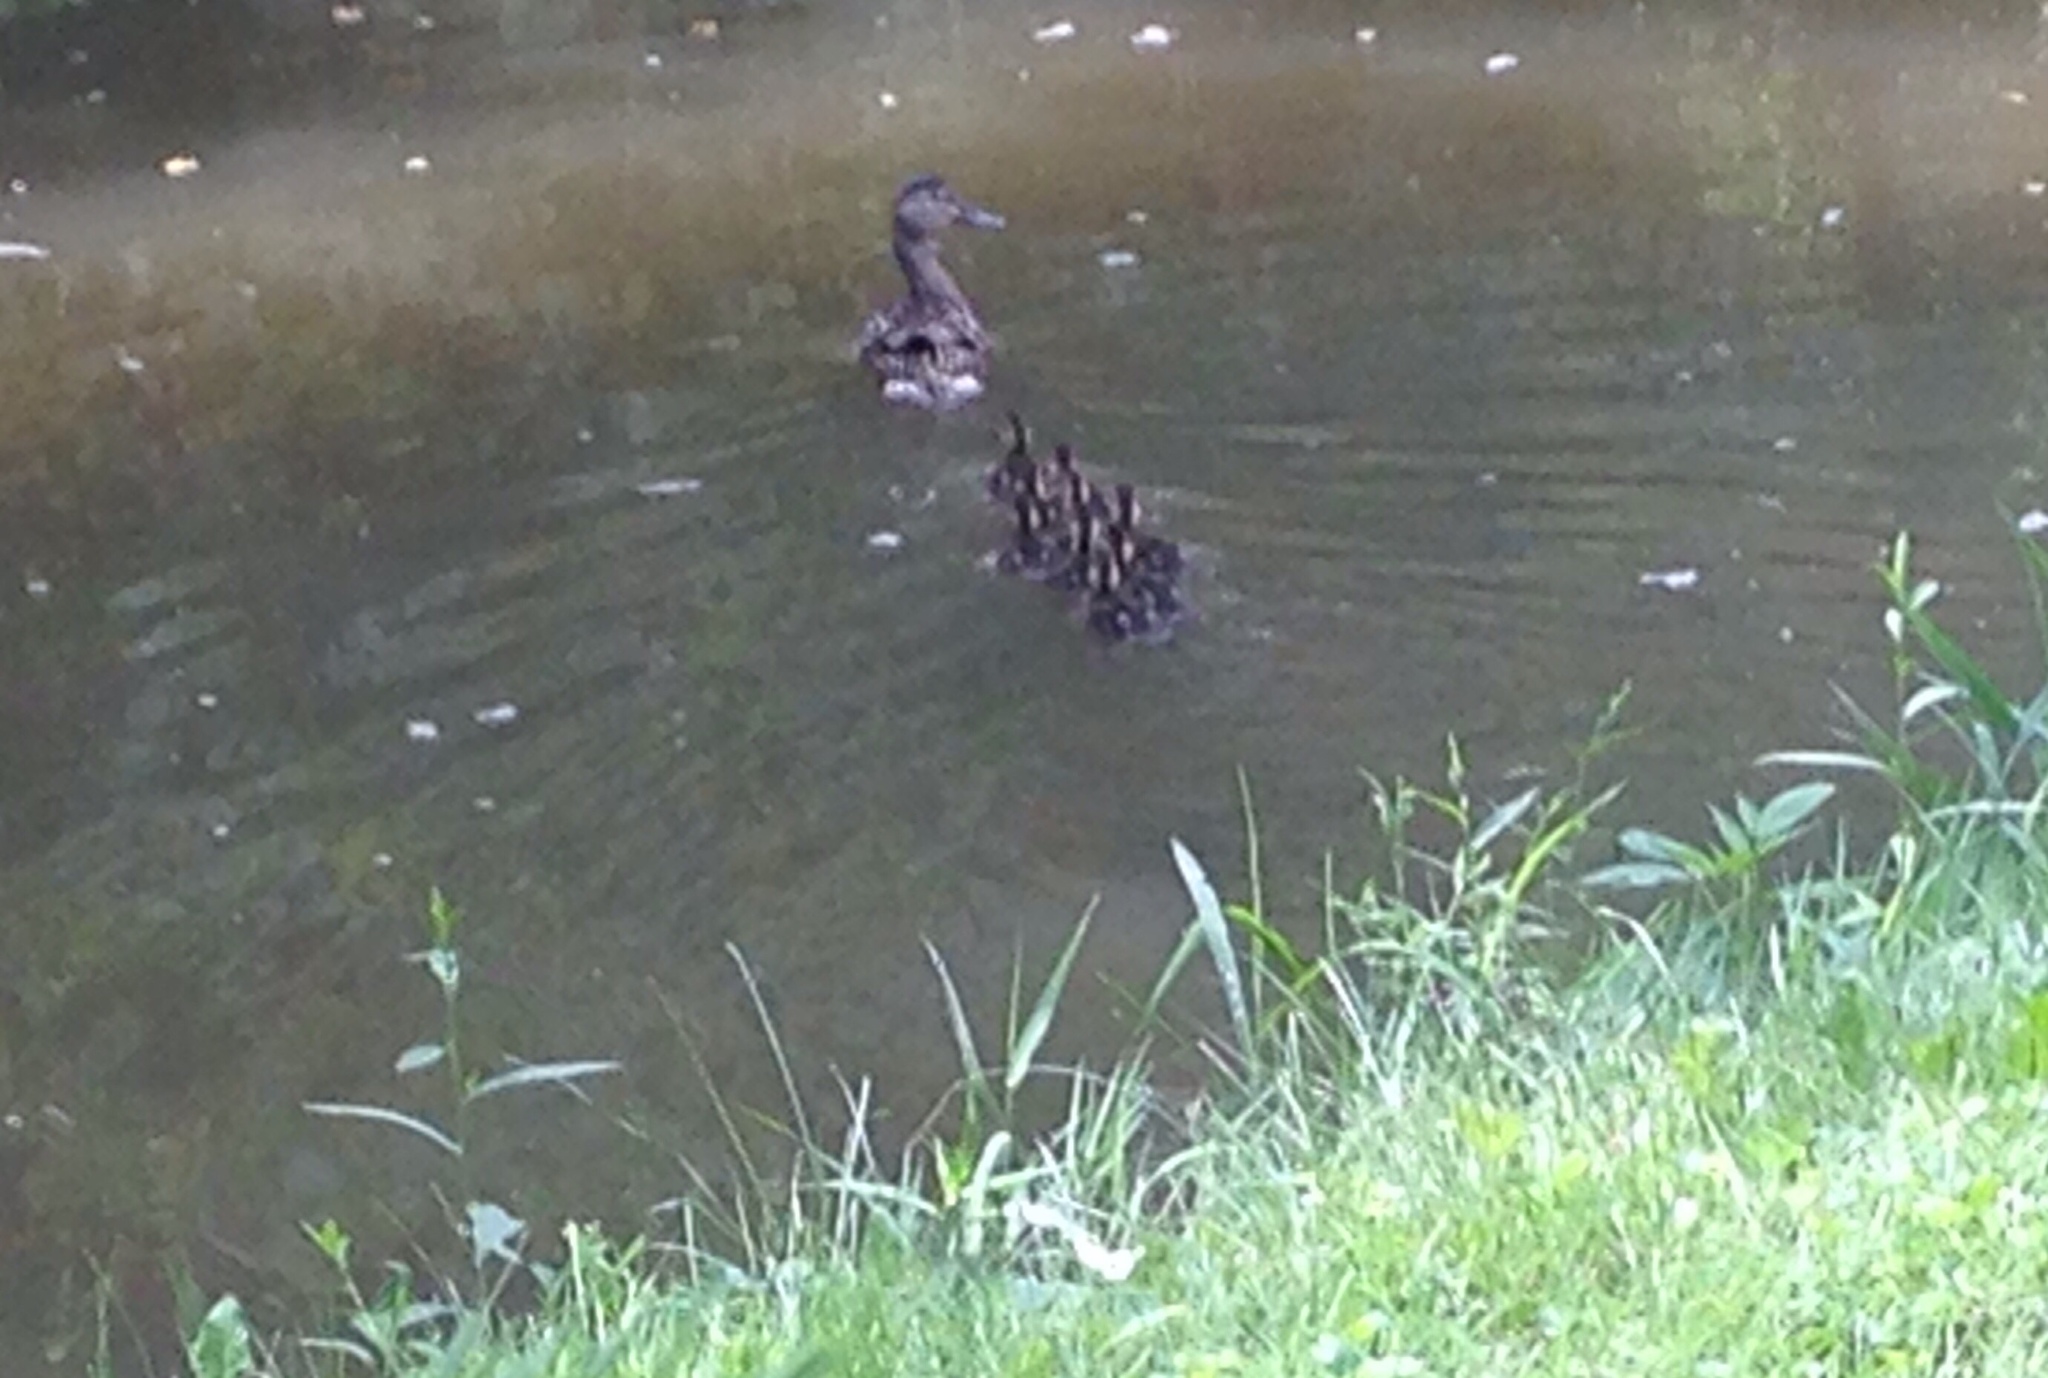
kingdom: Animalia
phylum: Chordata
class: Aves
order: Anseriformes
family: Anatidae
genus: Anas
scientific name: Anas platyrhynchos
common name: Mallard
